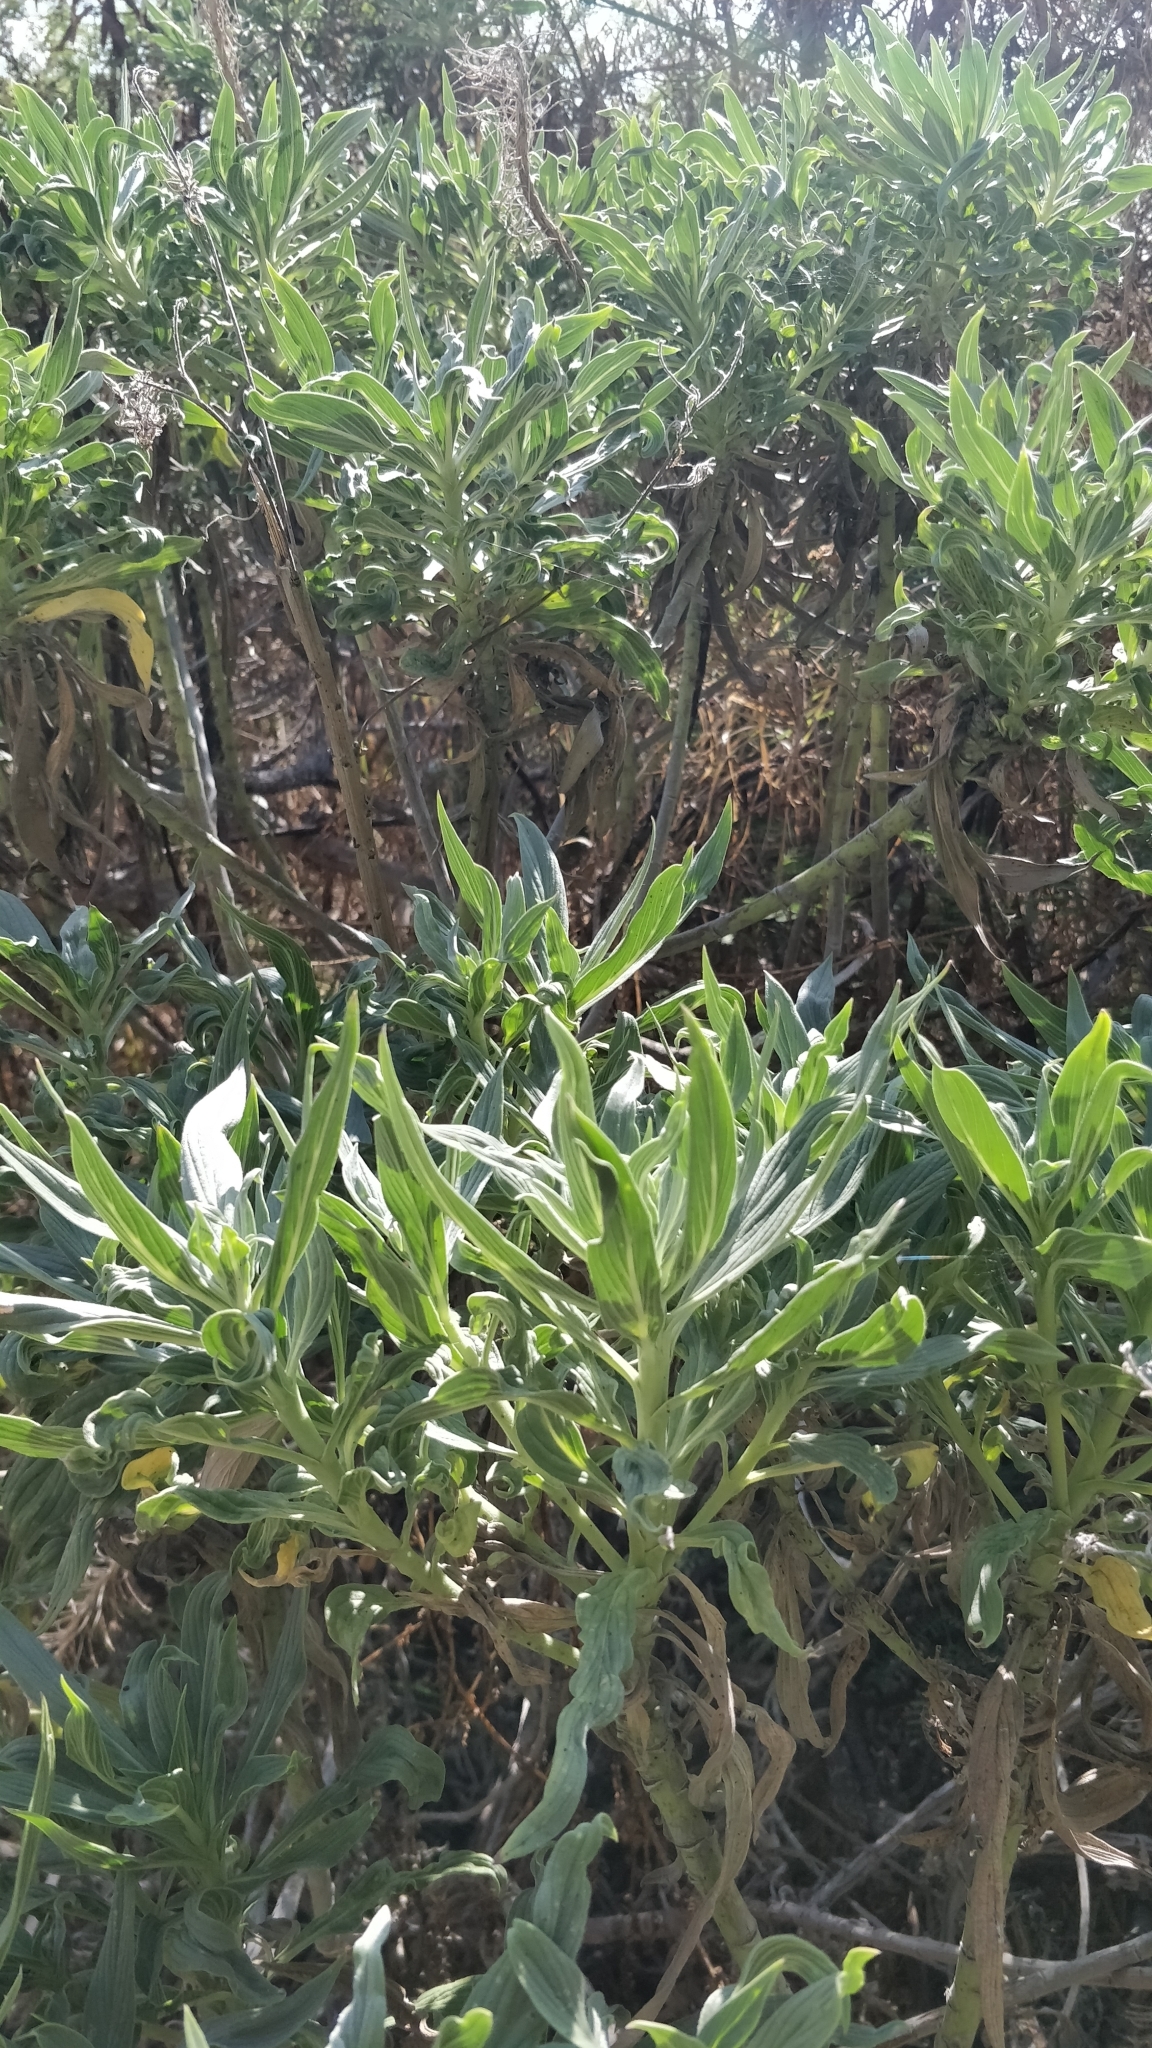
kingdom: Plantae
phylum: Tracheophyta
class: Magnoliopsida
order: Boraginales
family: Boraginaceae
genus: Echium
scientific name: Echium nervosum
